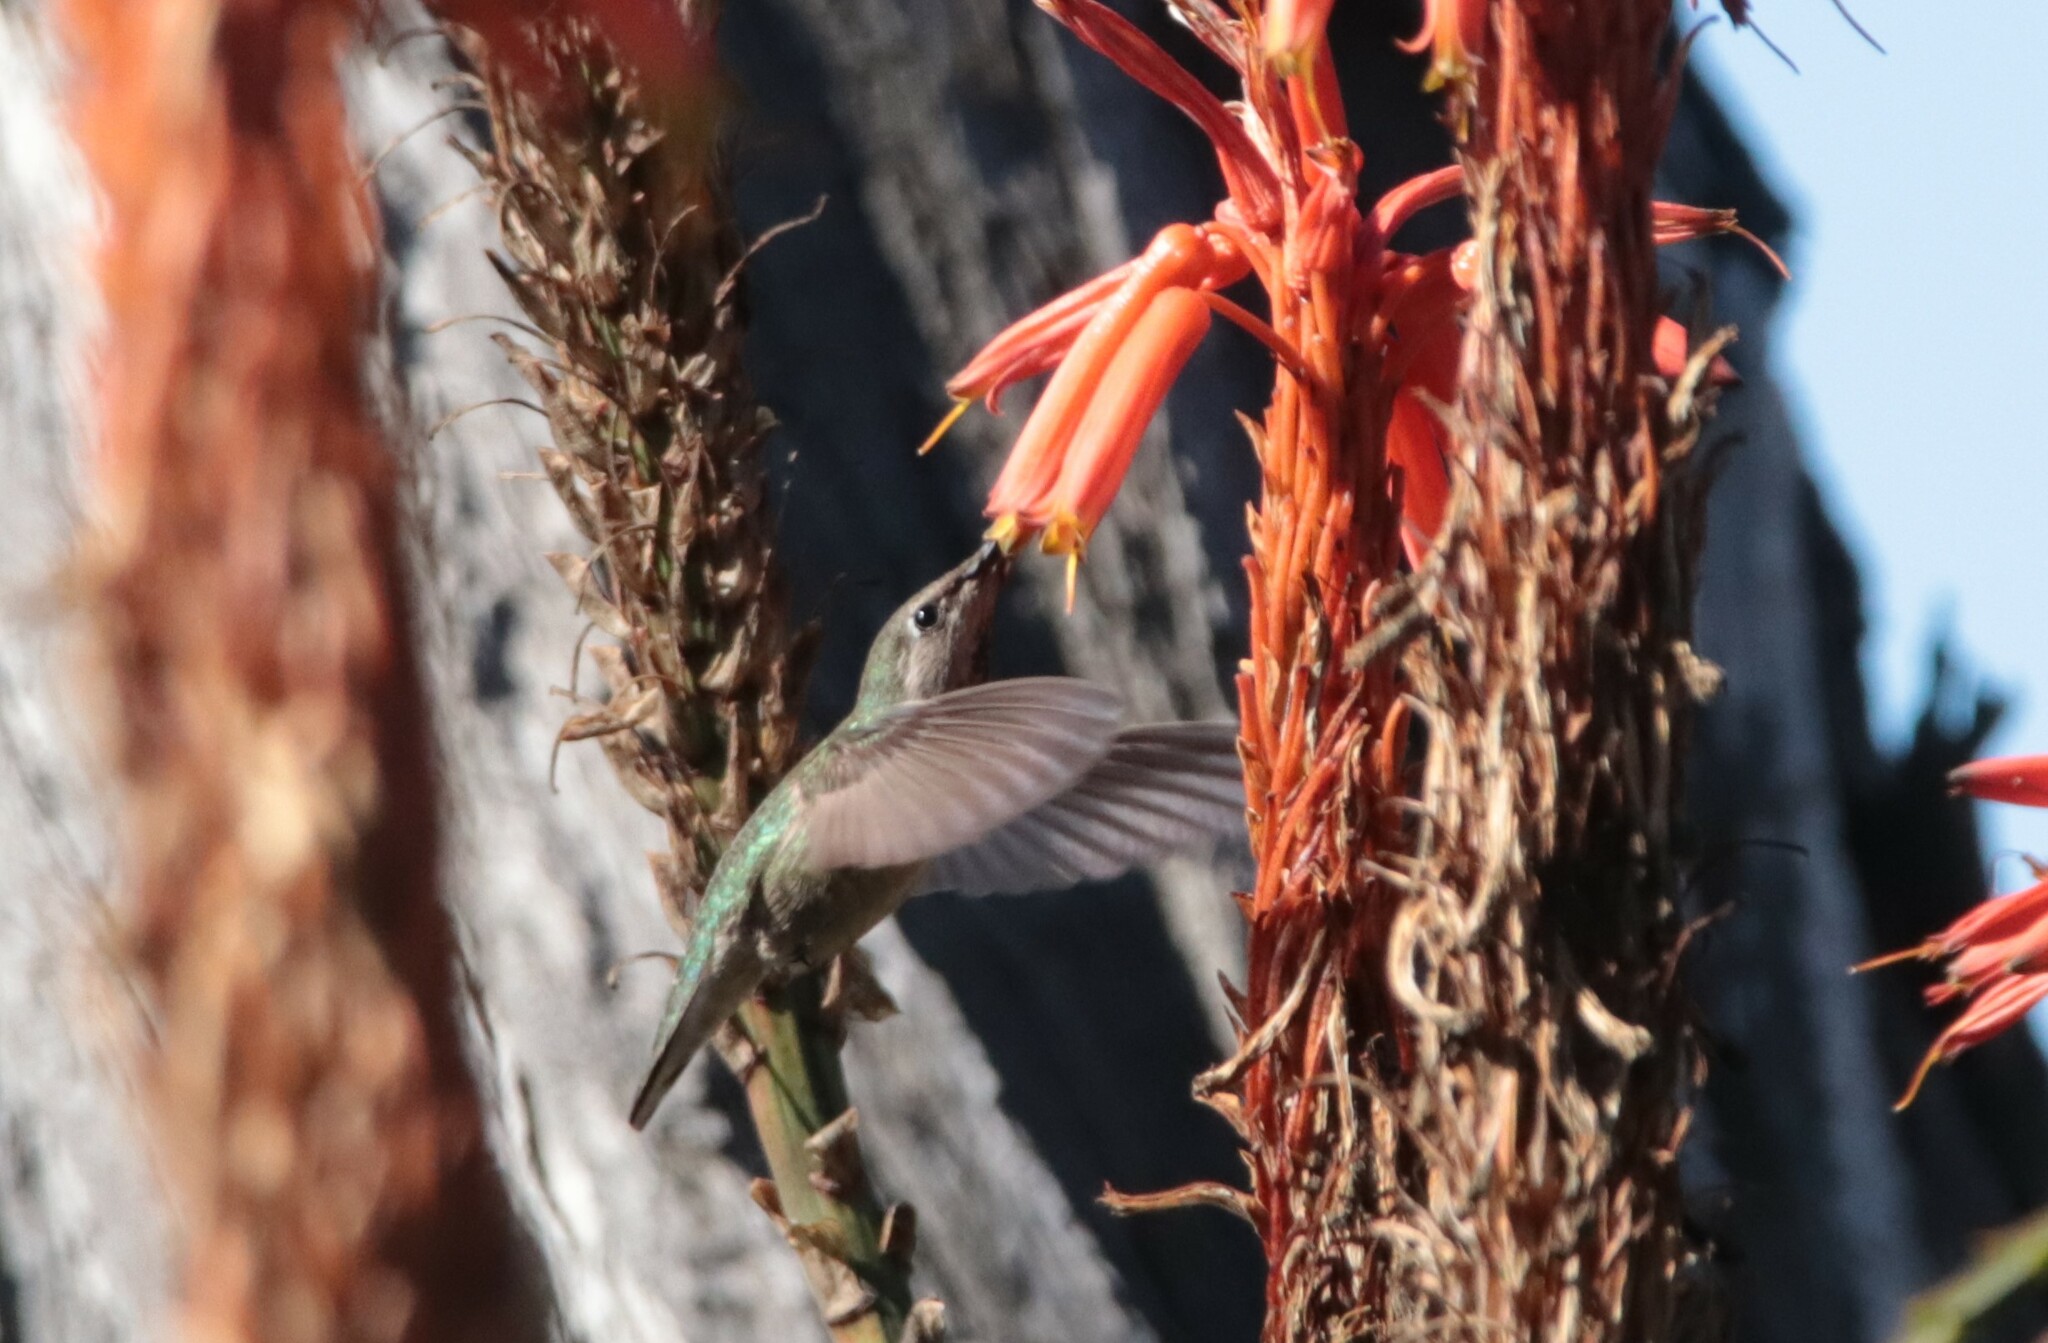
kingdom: Animalia
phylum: Chordata
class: Aves
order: Apodiformes
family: Trochilidae
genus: Calypte
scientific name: Calypte anna
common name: Anna's hummingbird
